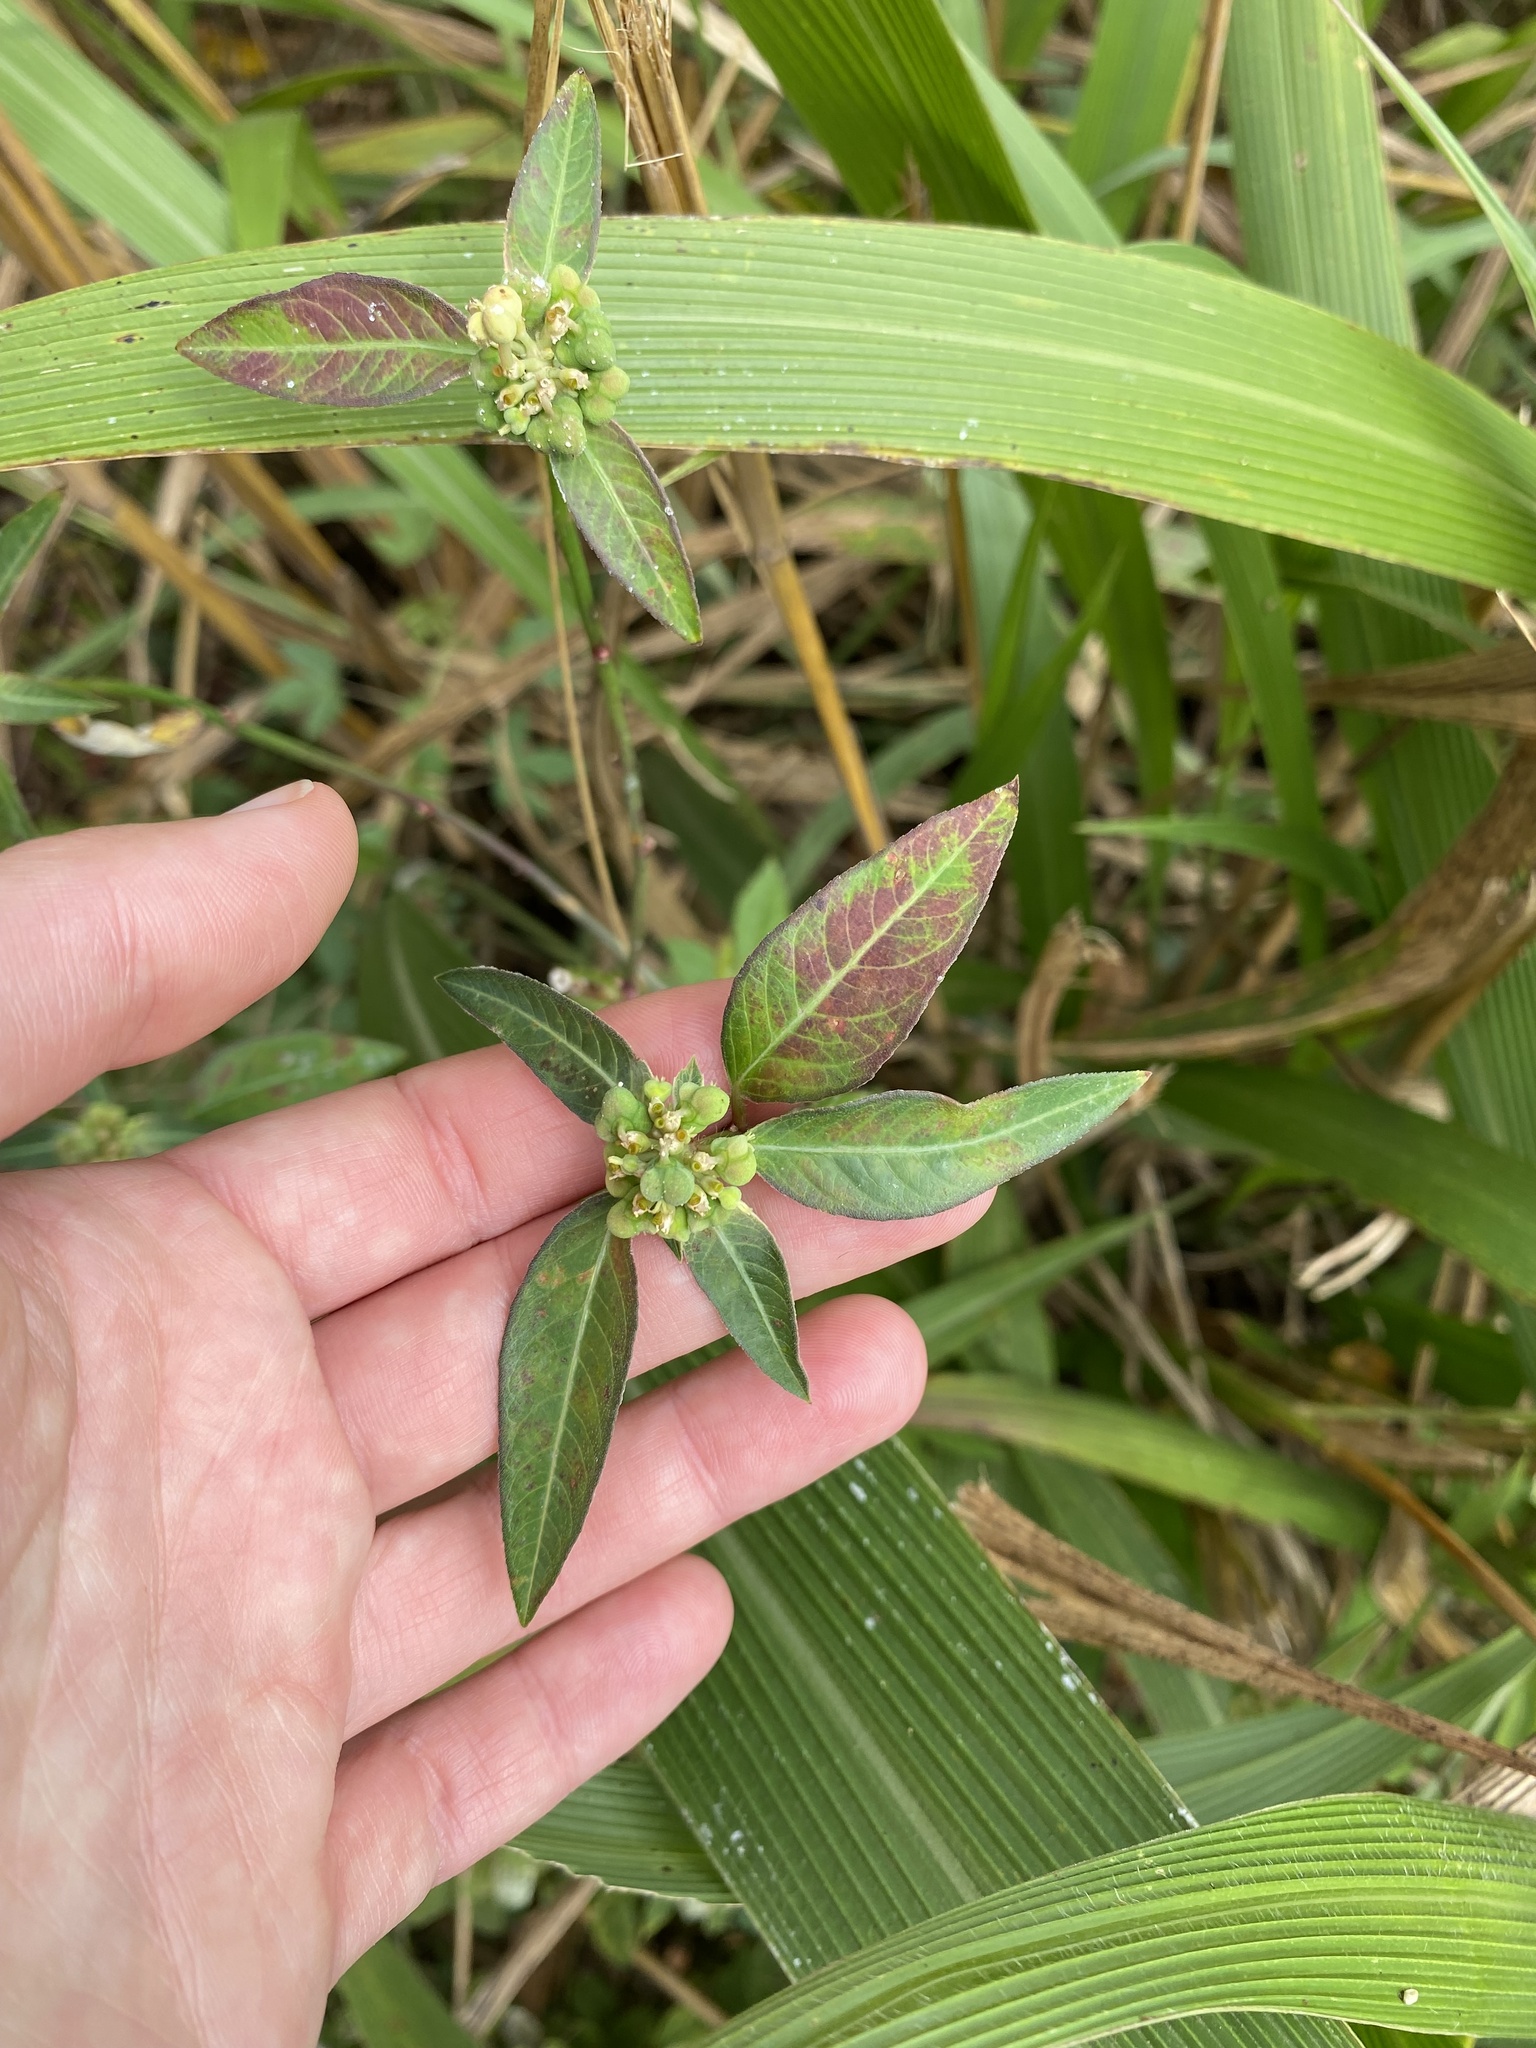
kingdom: Plantae
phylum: Tracheophyta
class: Magnoliopsida
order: Malpighiales
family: Euphorbiaceae
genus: Euphorbia
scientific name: Euphorbia heterophylla
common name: Mexican fireplant
